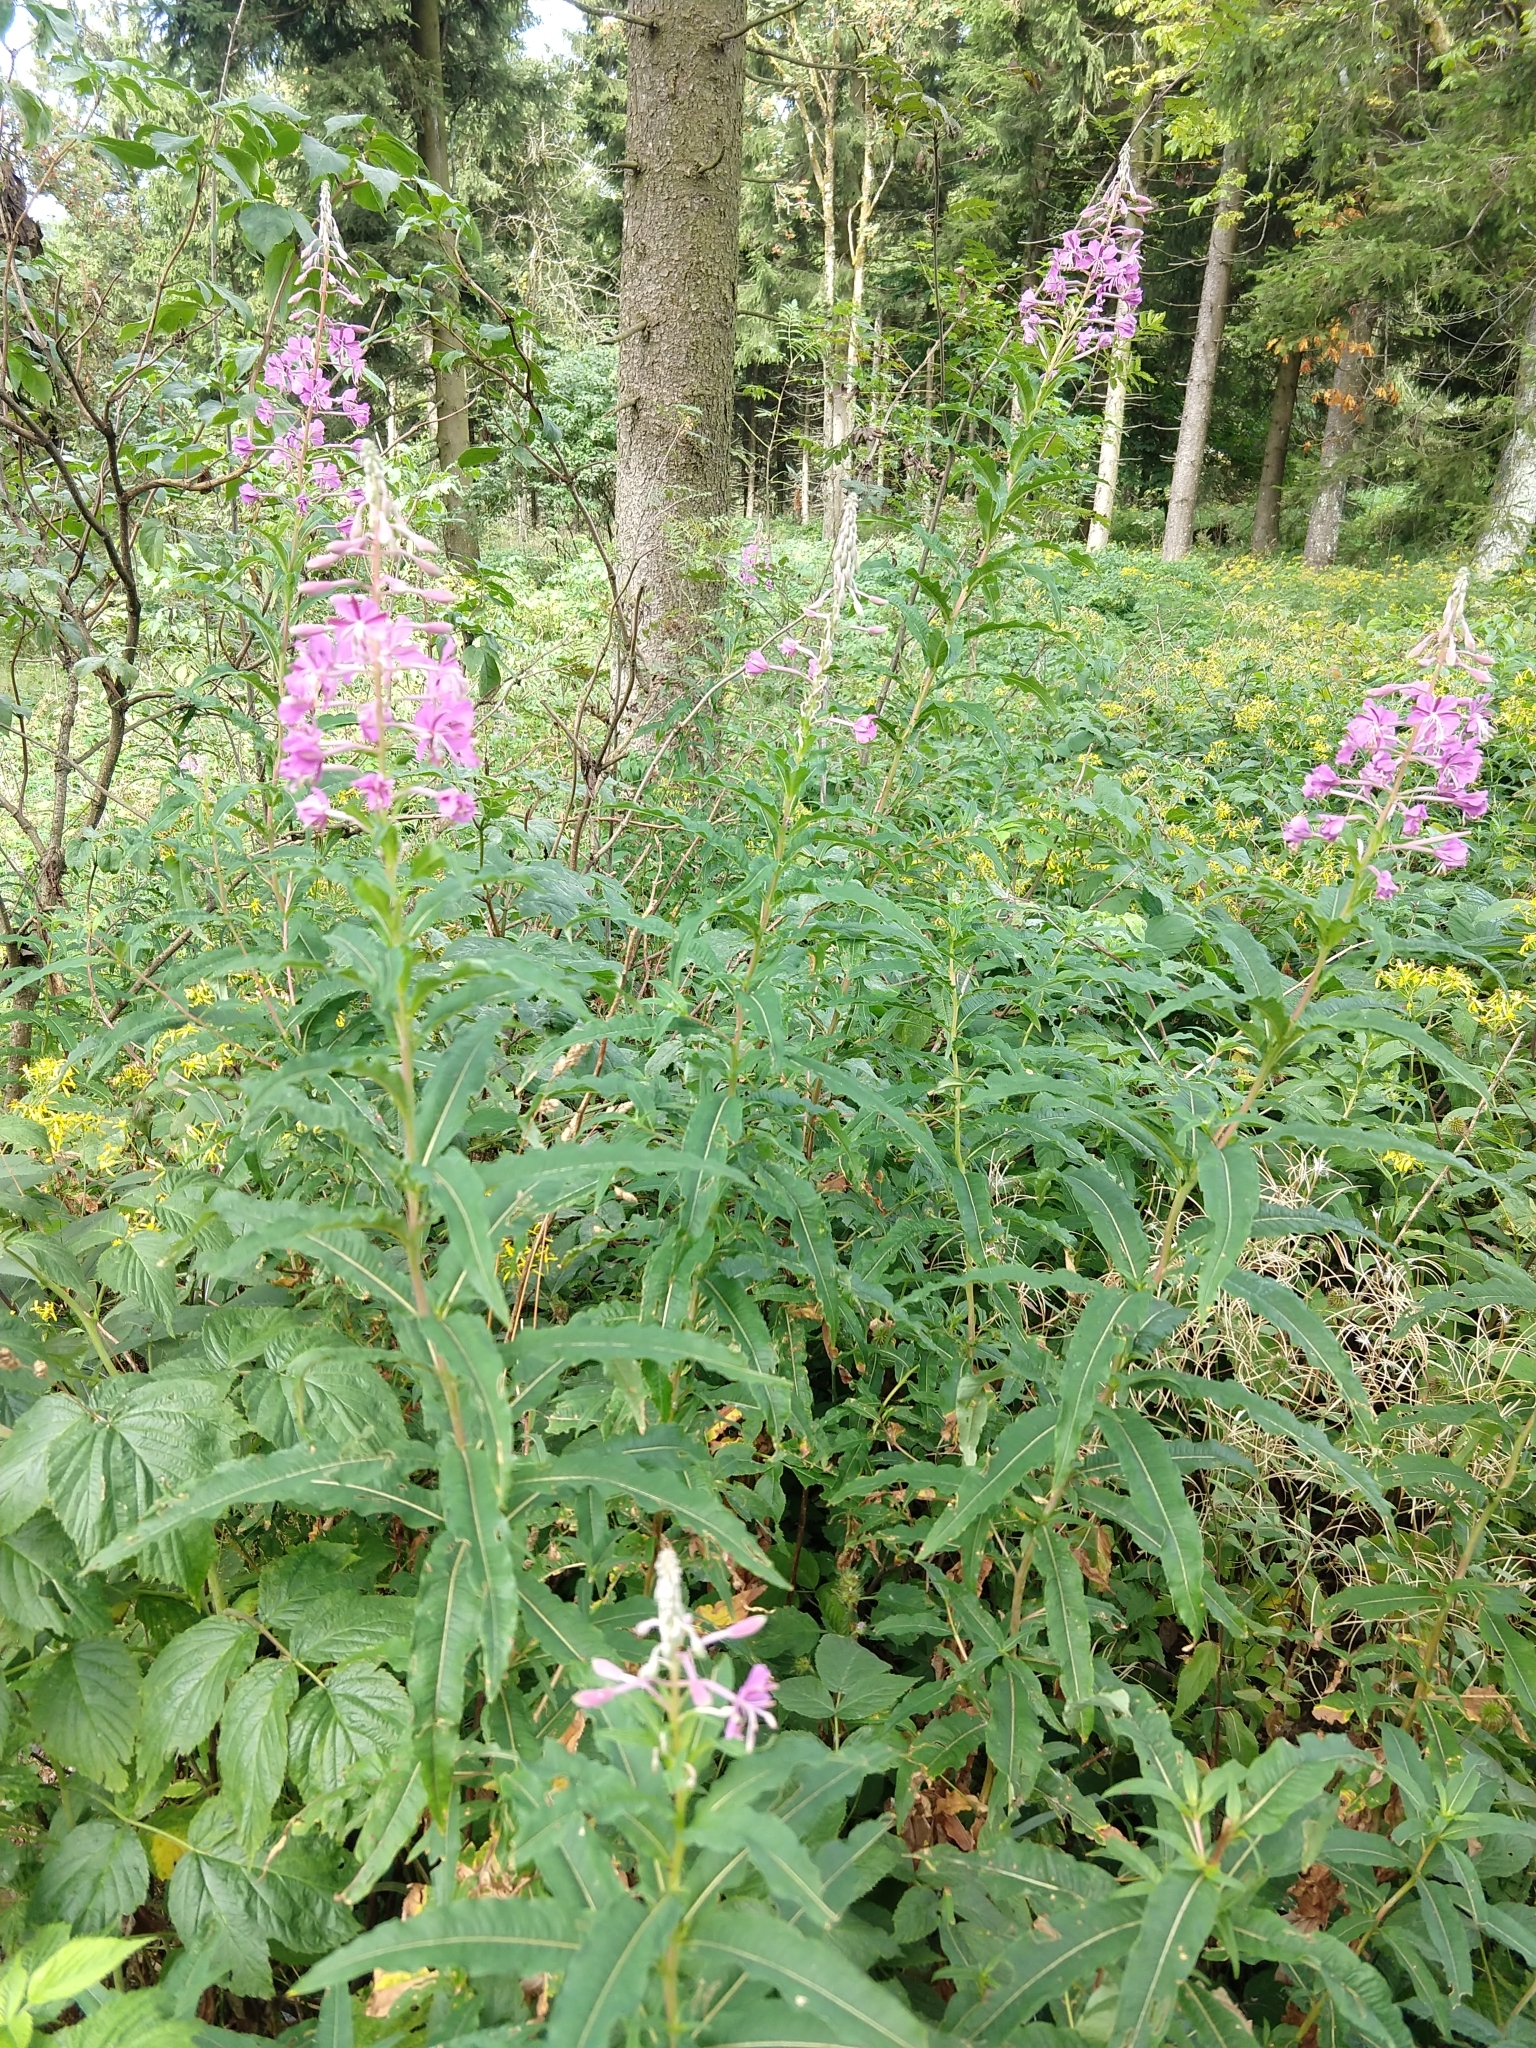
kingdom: Plantae
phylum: Tracheophyta
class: Magnoliopsida
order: Myrtales
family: Onagraceae
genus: Chamaenerion
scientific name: Chamaenerion angustifolium
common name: Fireweed
